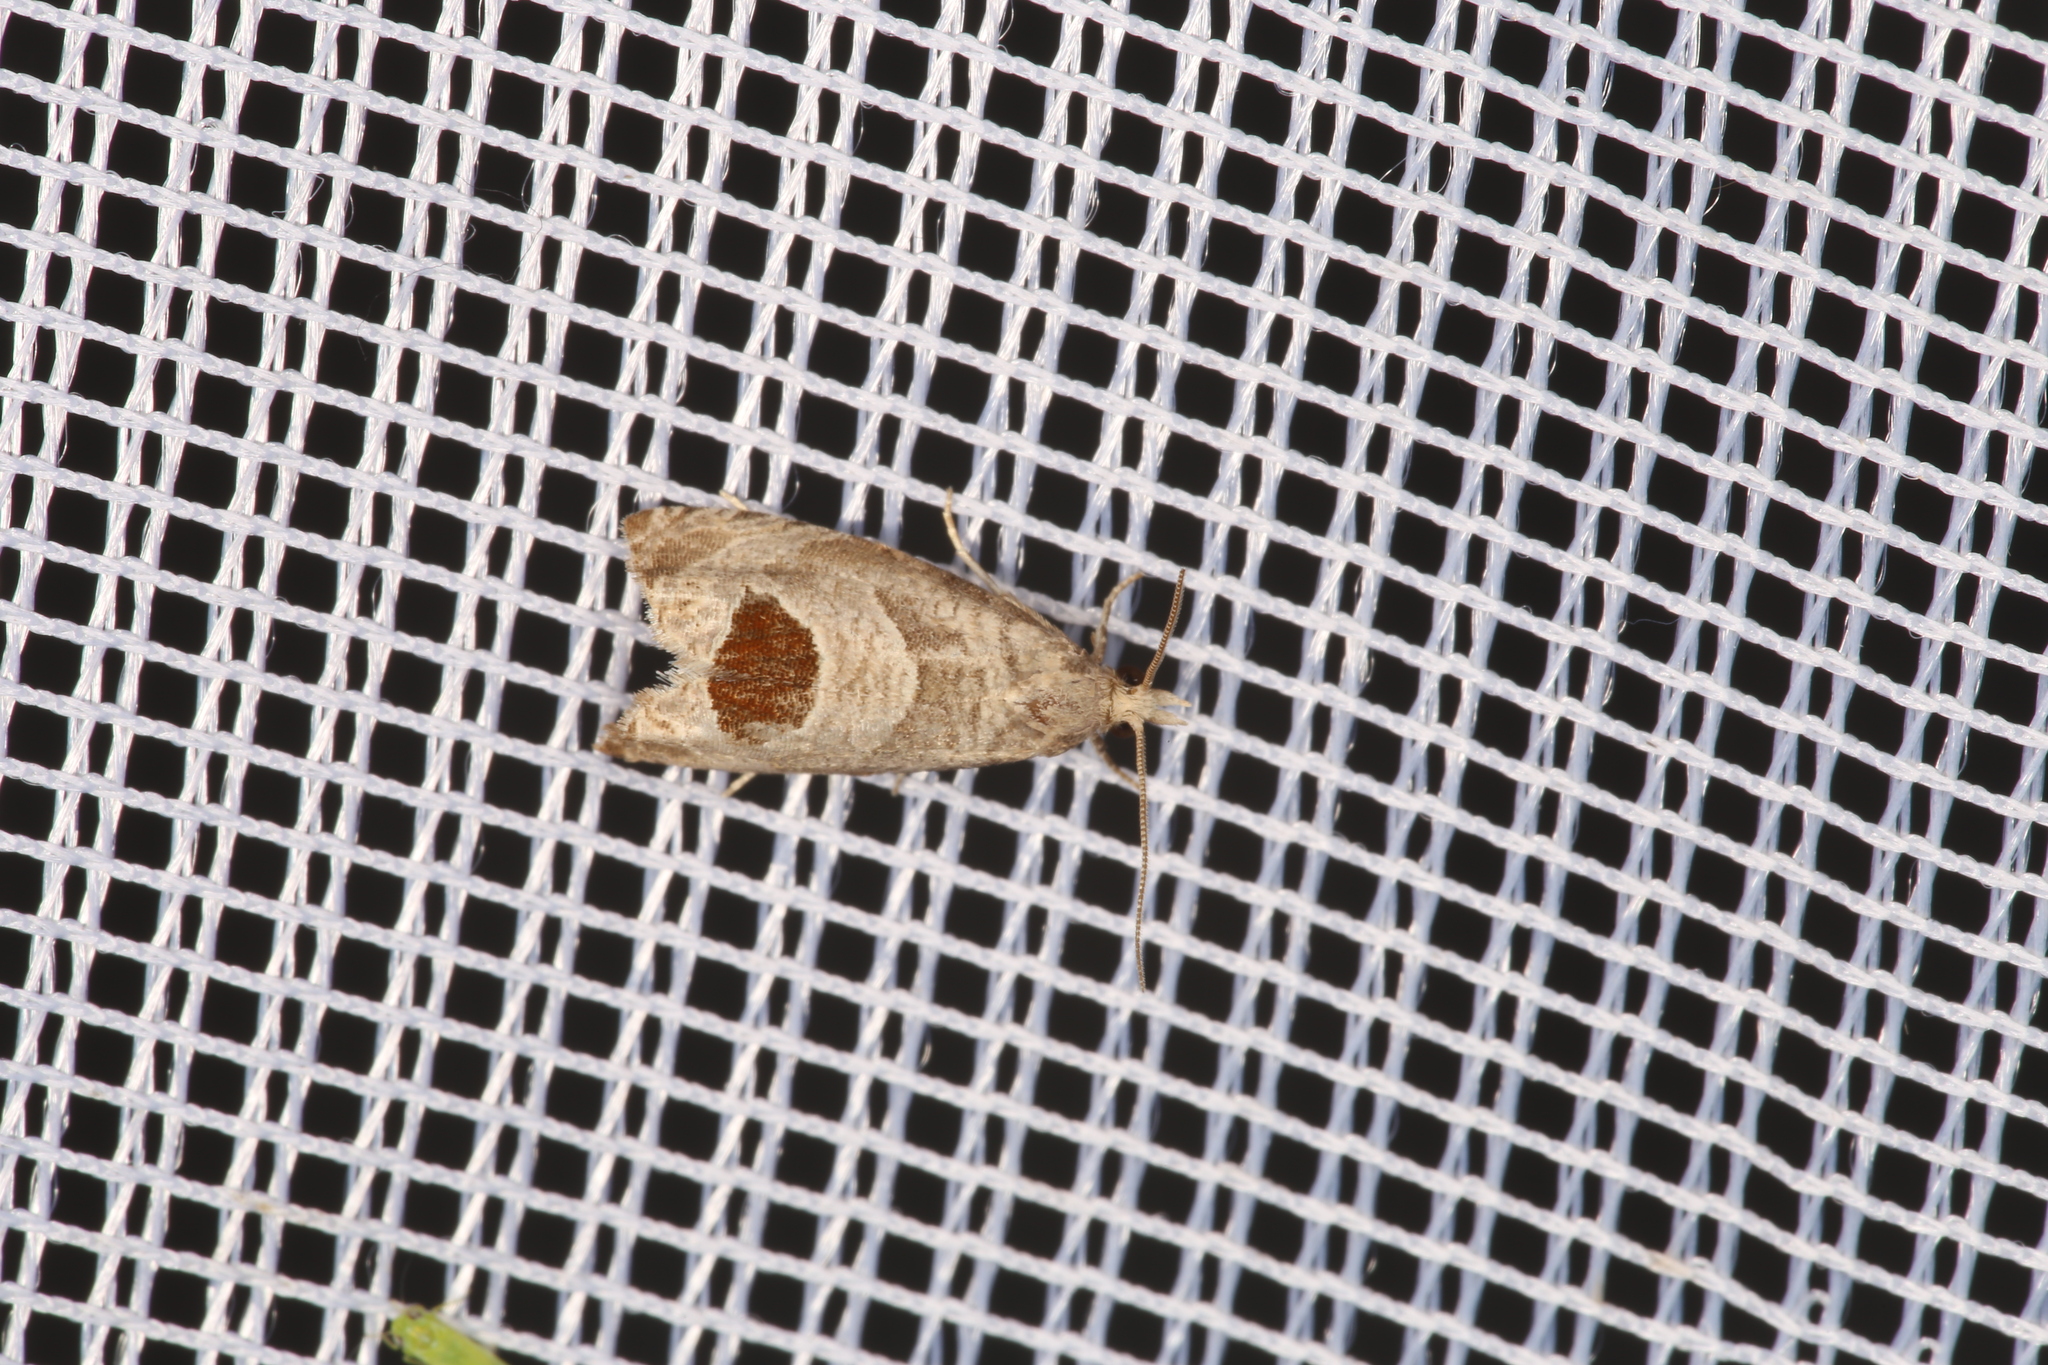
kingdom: Animalia
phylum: Arthropoda
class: Insecta
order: Lepidoptera
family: Tortricidae
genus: Notocelia
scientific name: Notocelia uddmanniana
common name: Bramble shoot moth
